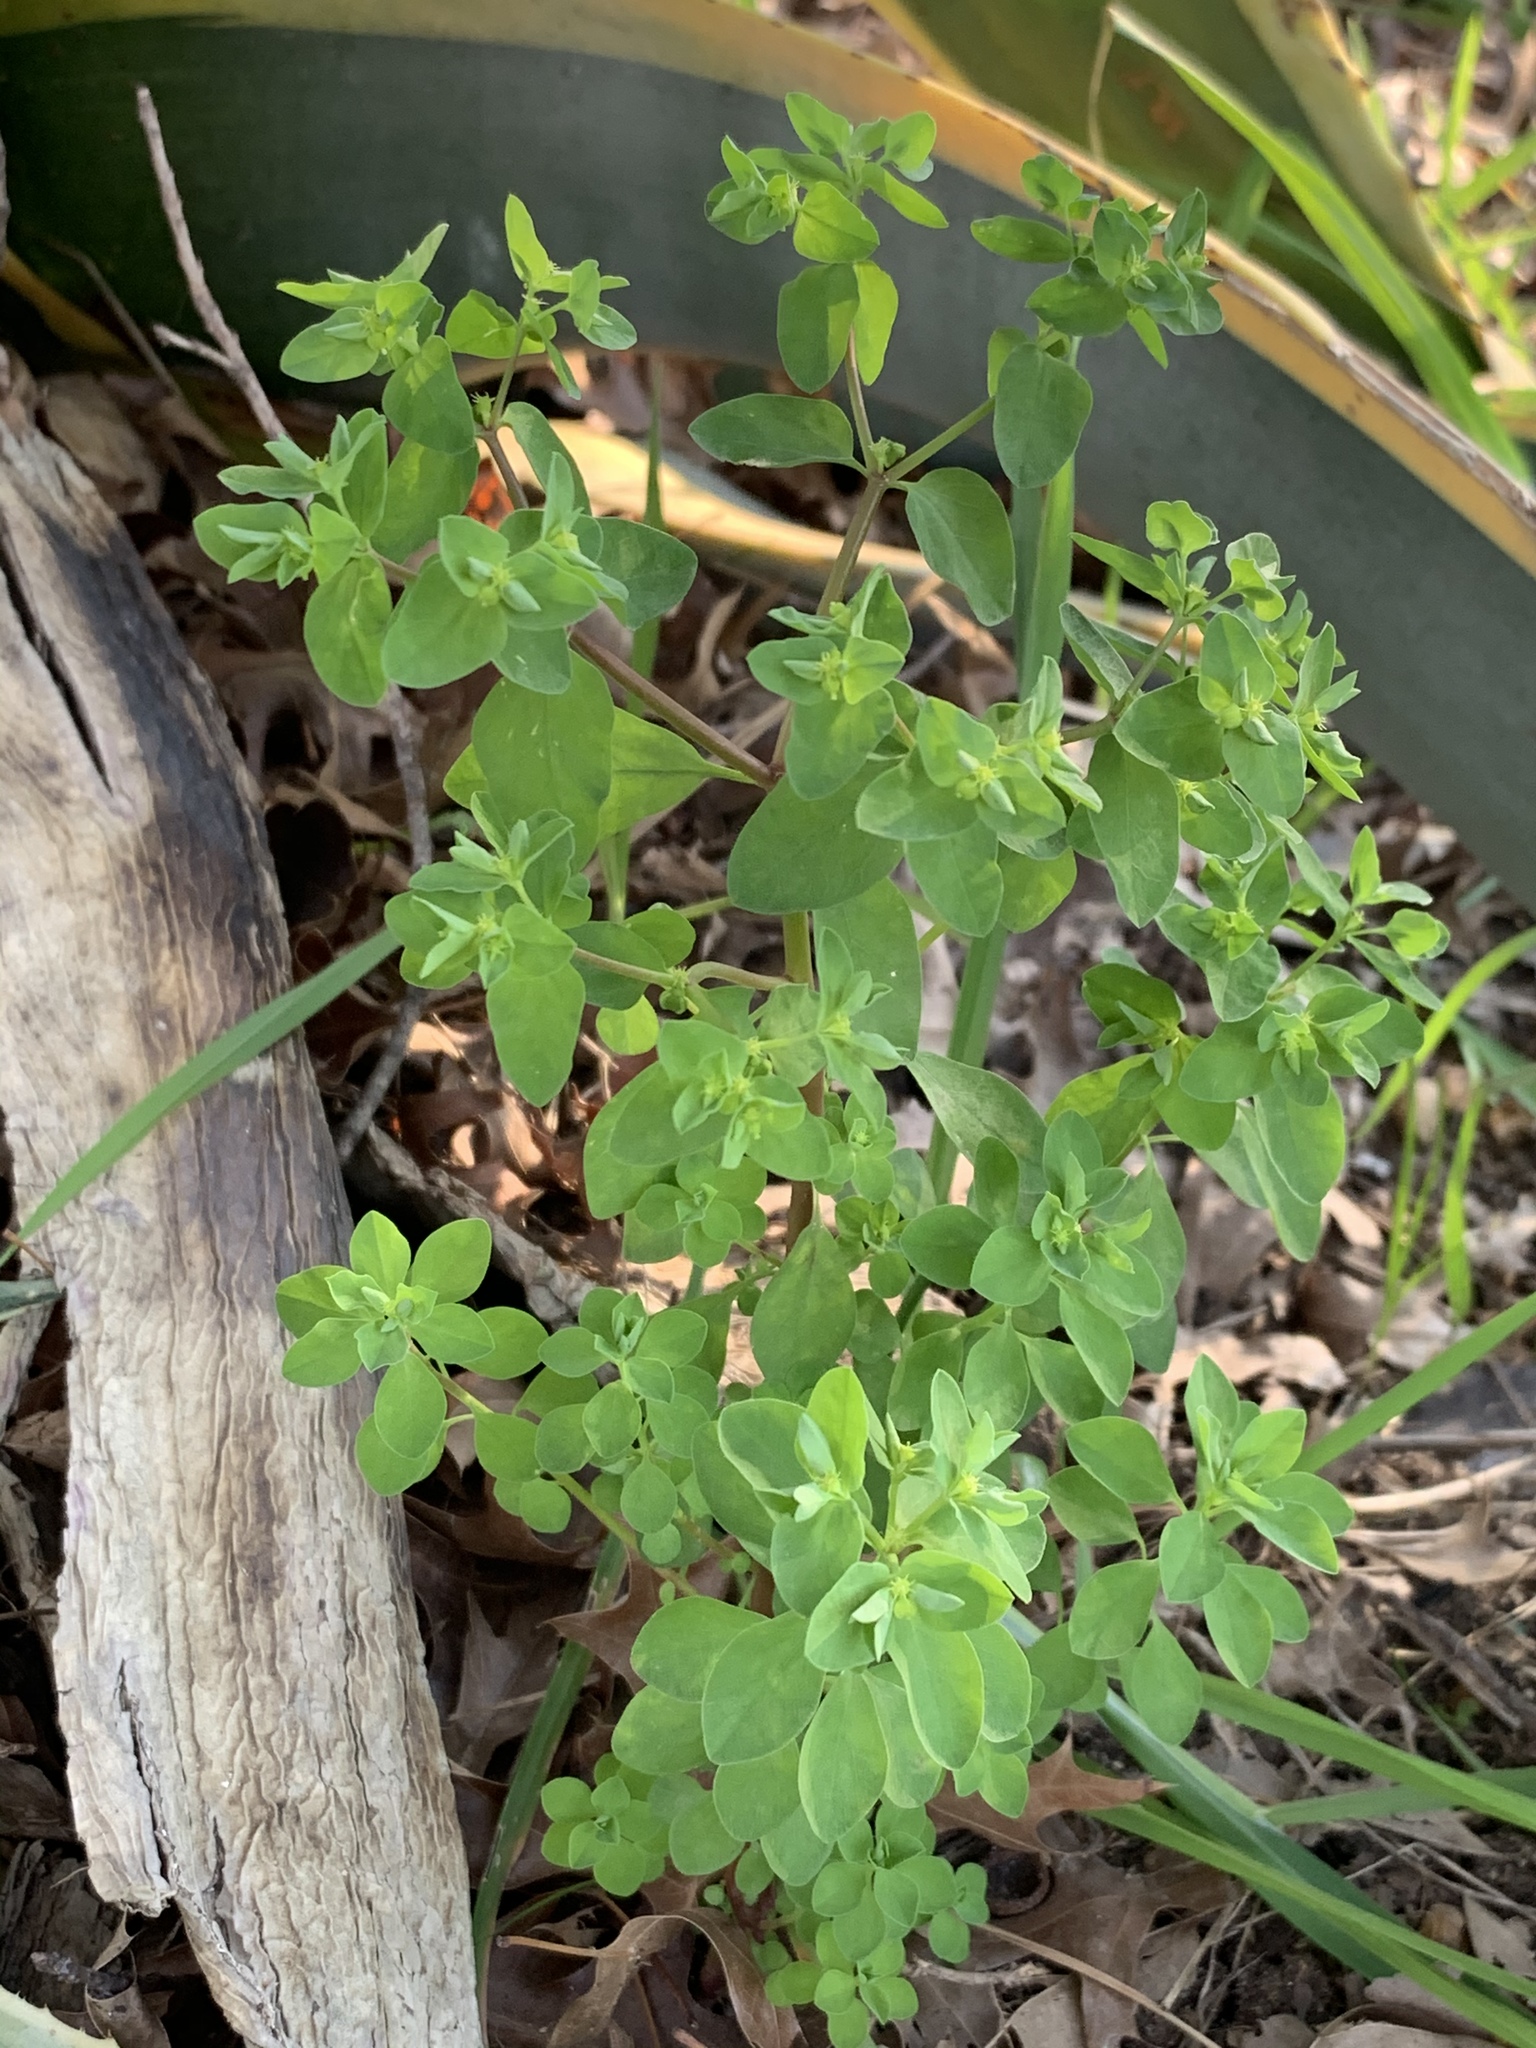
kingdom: Plantae
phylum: Tracheophyta
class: Magnoliopsida
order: Malpighiales
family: Euphorbiaceae
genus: Euphorbia
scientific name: Euphorbia peplus
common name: Petty spurge
